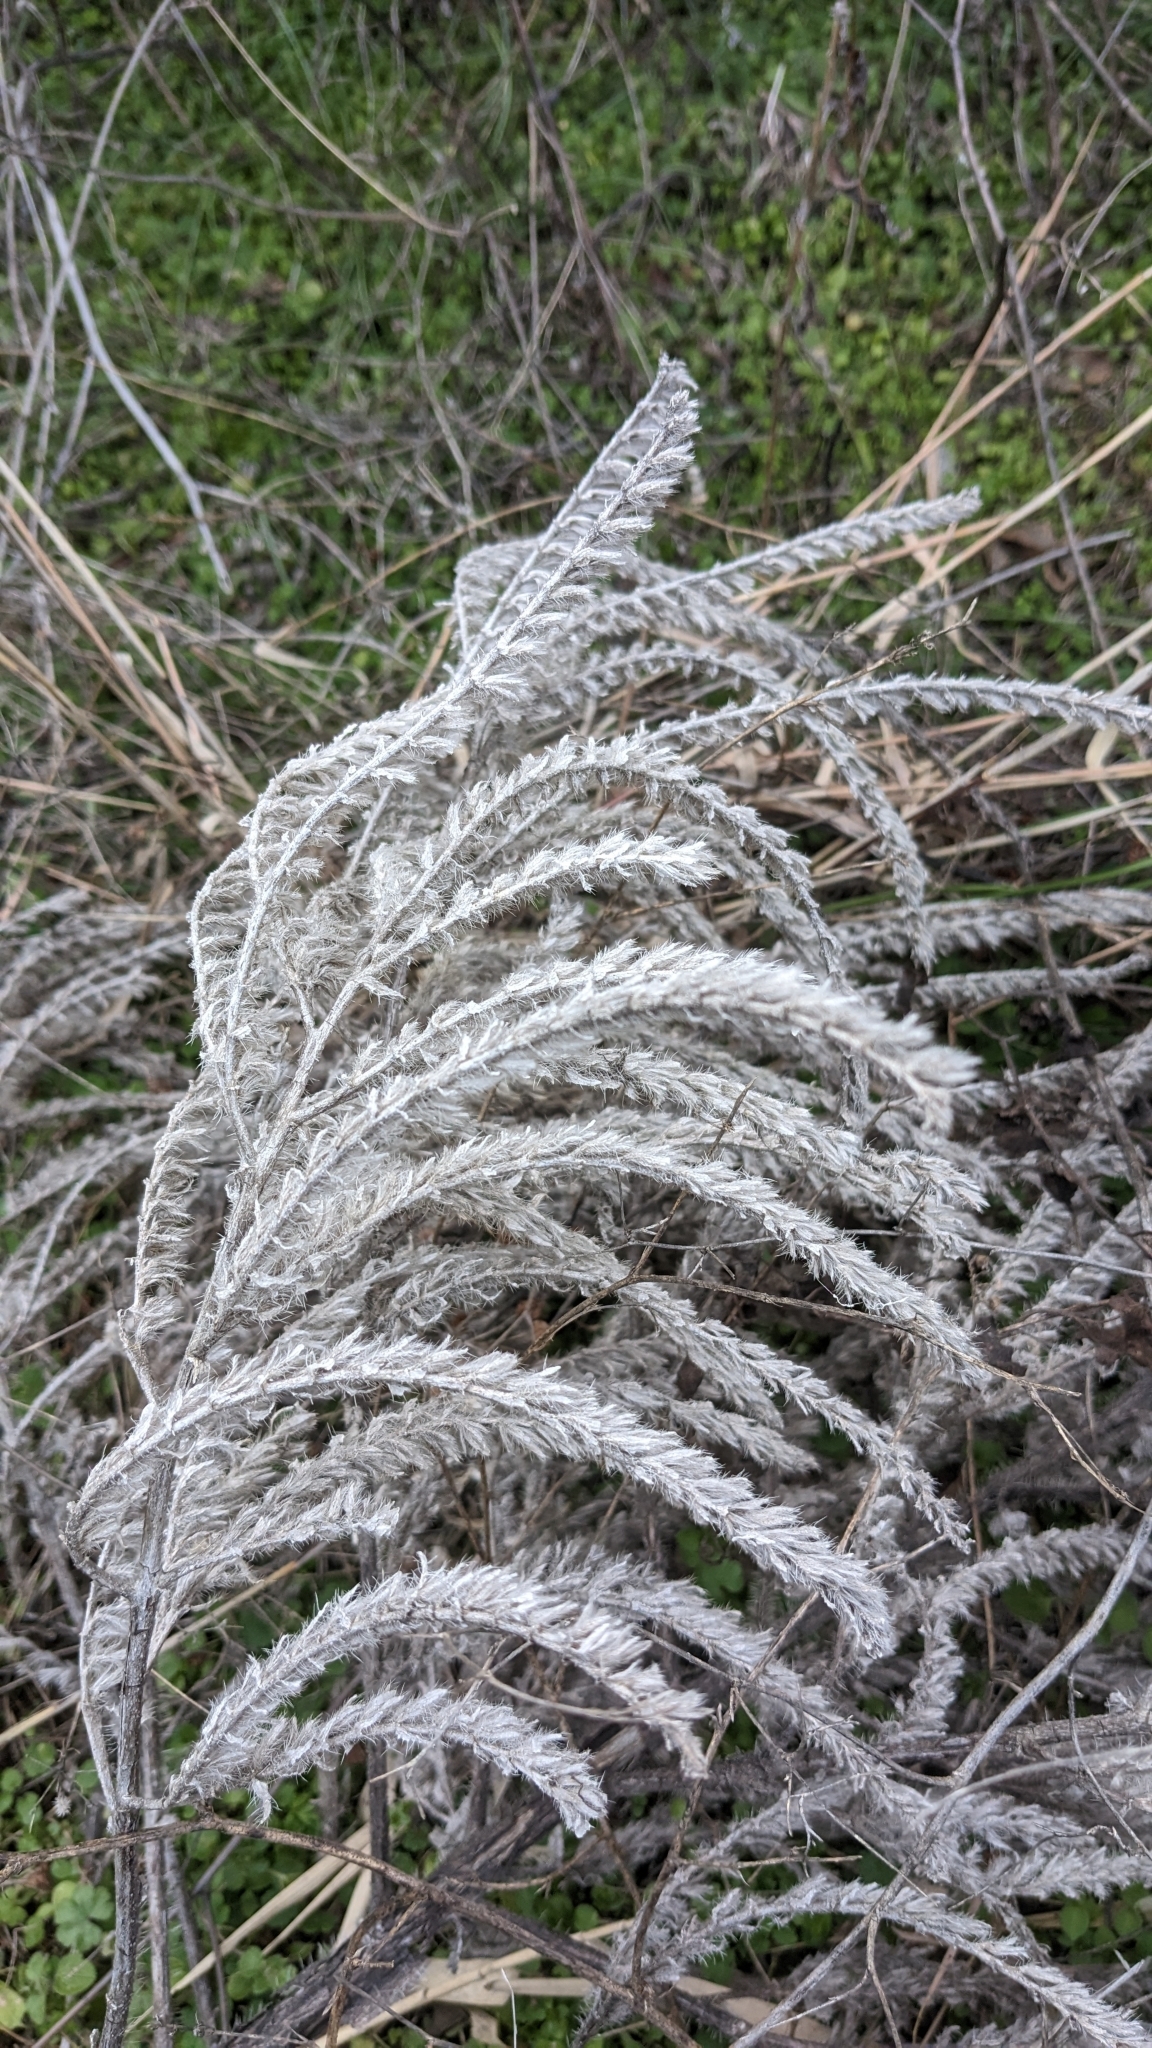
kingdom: Plantae
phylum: Tracheophyta
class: Magnoliopsida
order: Boraginales
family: Boraginaceae
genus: Echium
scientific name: Echium italicum
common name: Italian viper's bugloss
